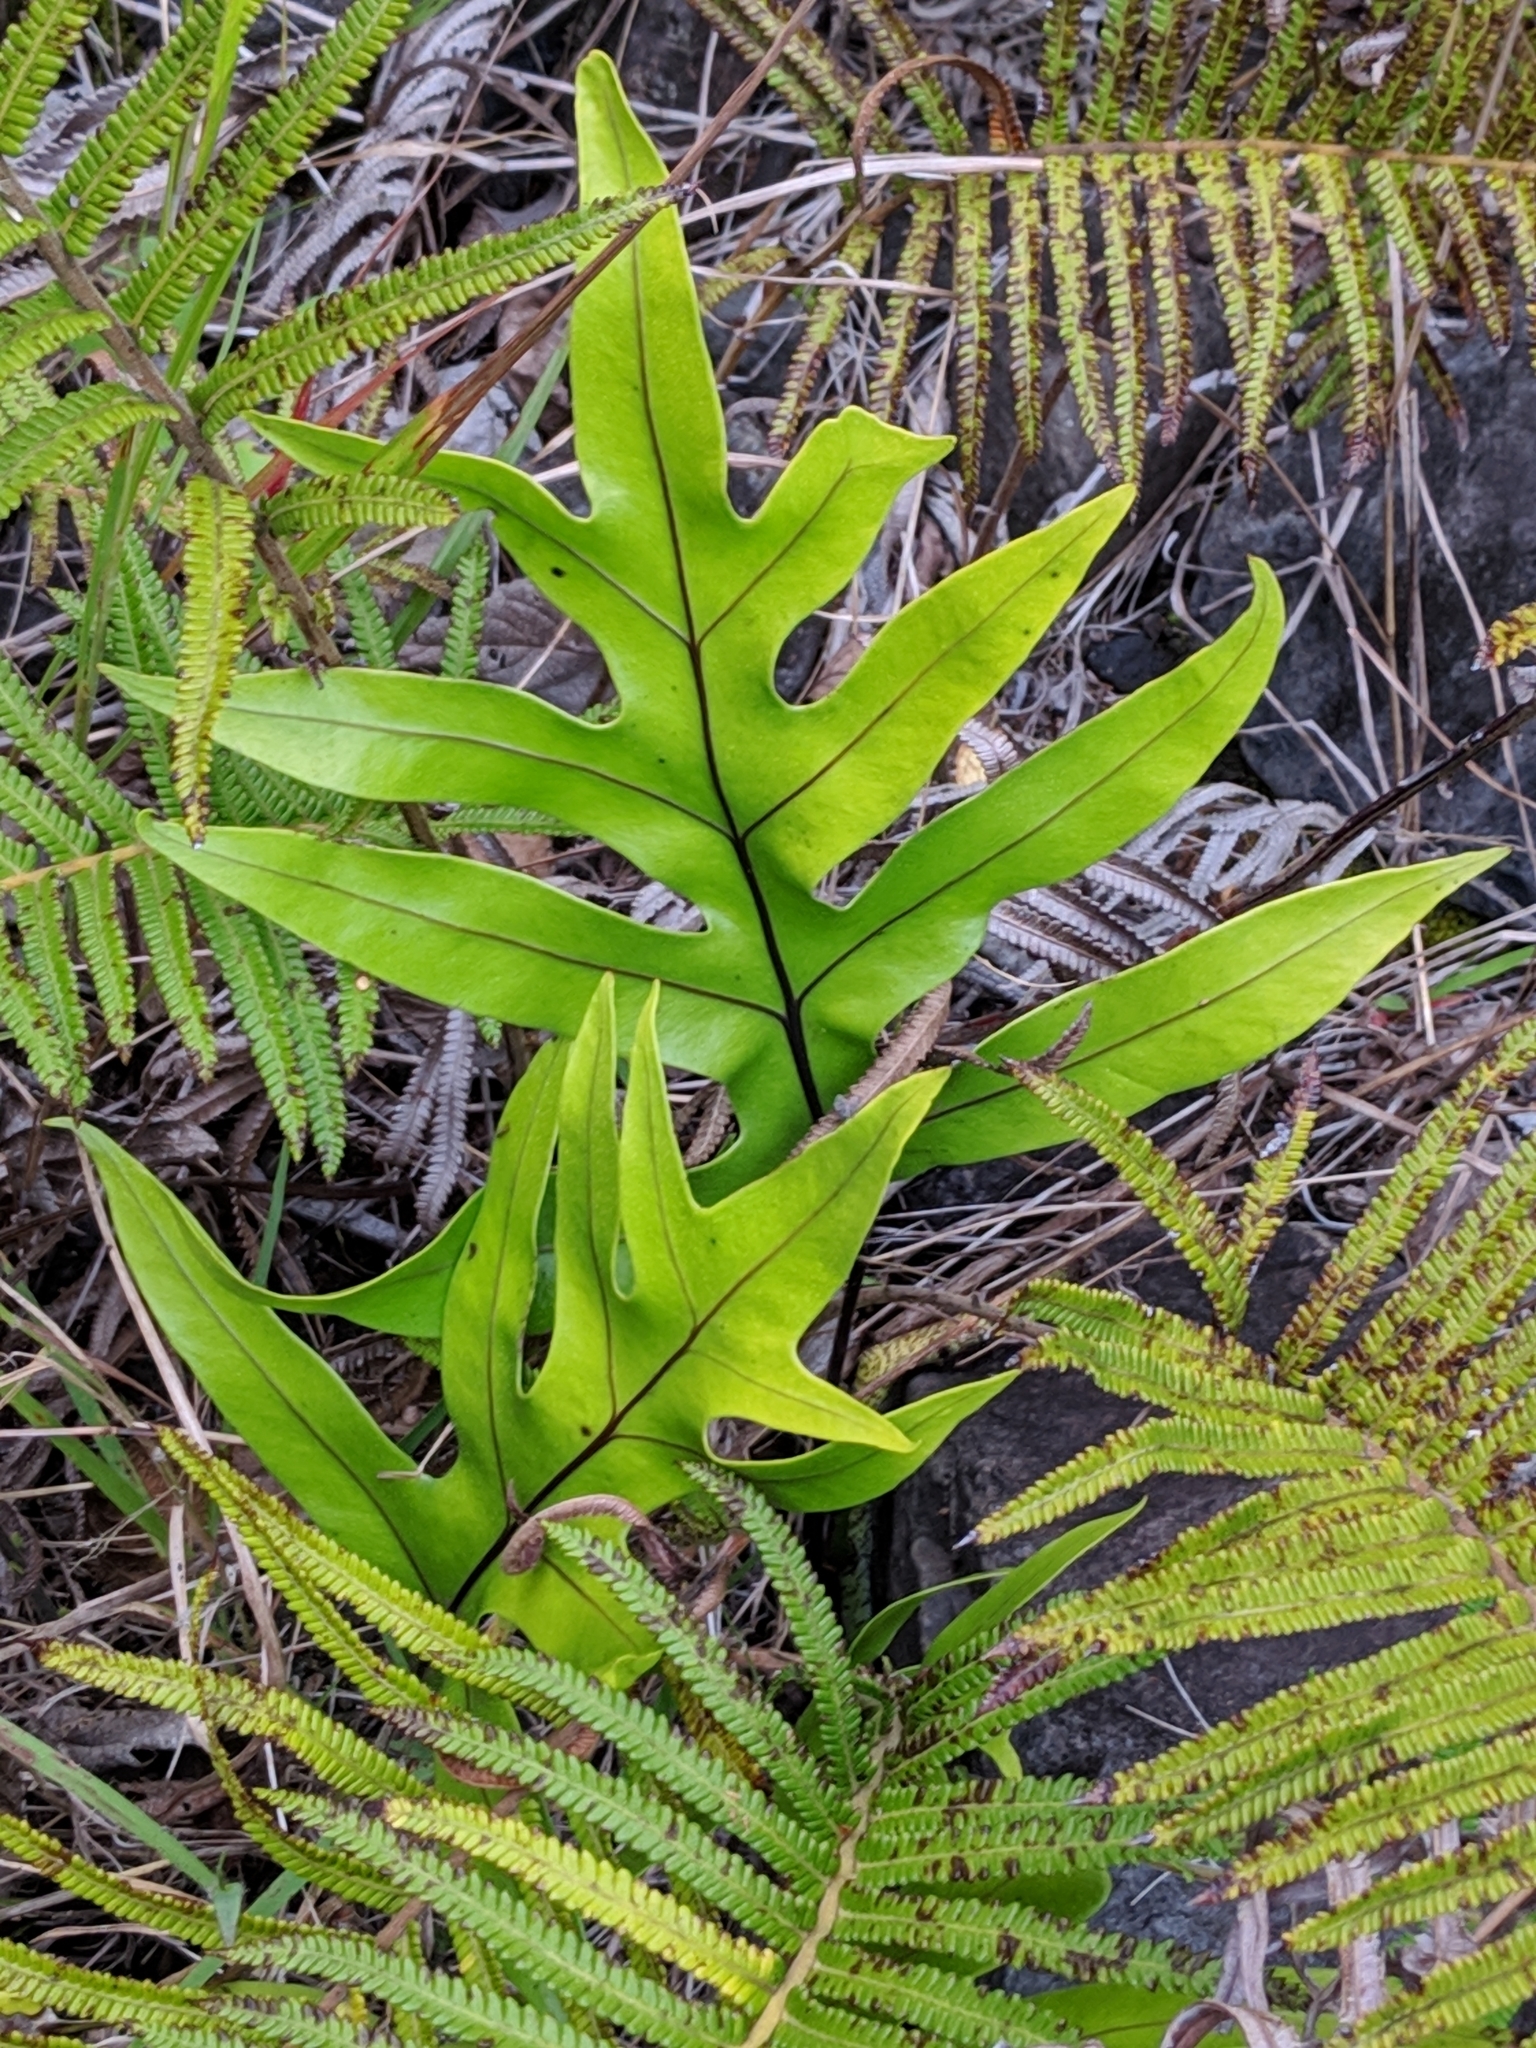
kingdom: Plantae
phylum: Tracheophyta
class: Polypodiopsida
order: Polypodiales
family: Polypodiaceae
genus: Microsorum
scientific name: Microsorum scolopendria
